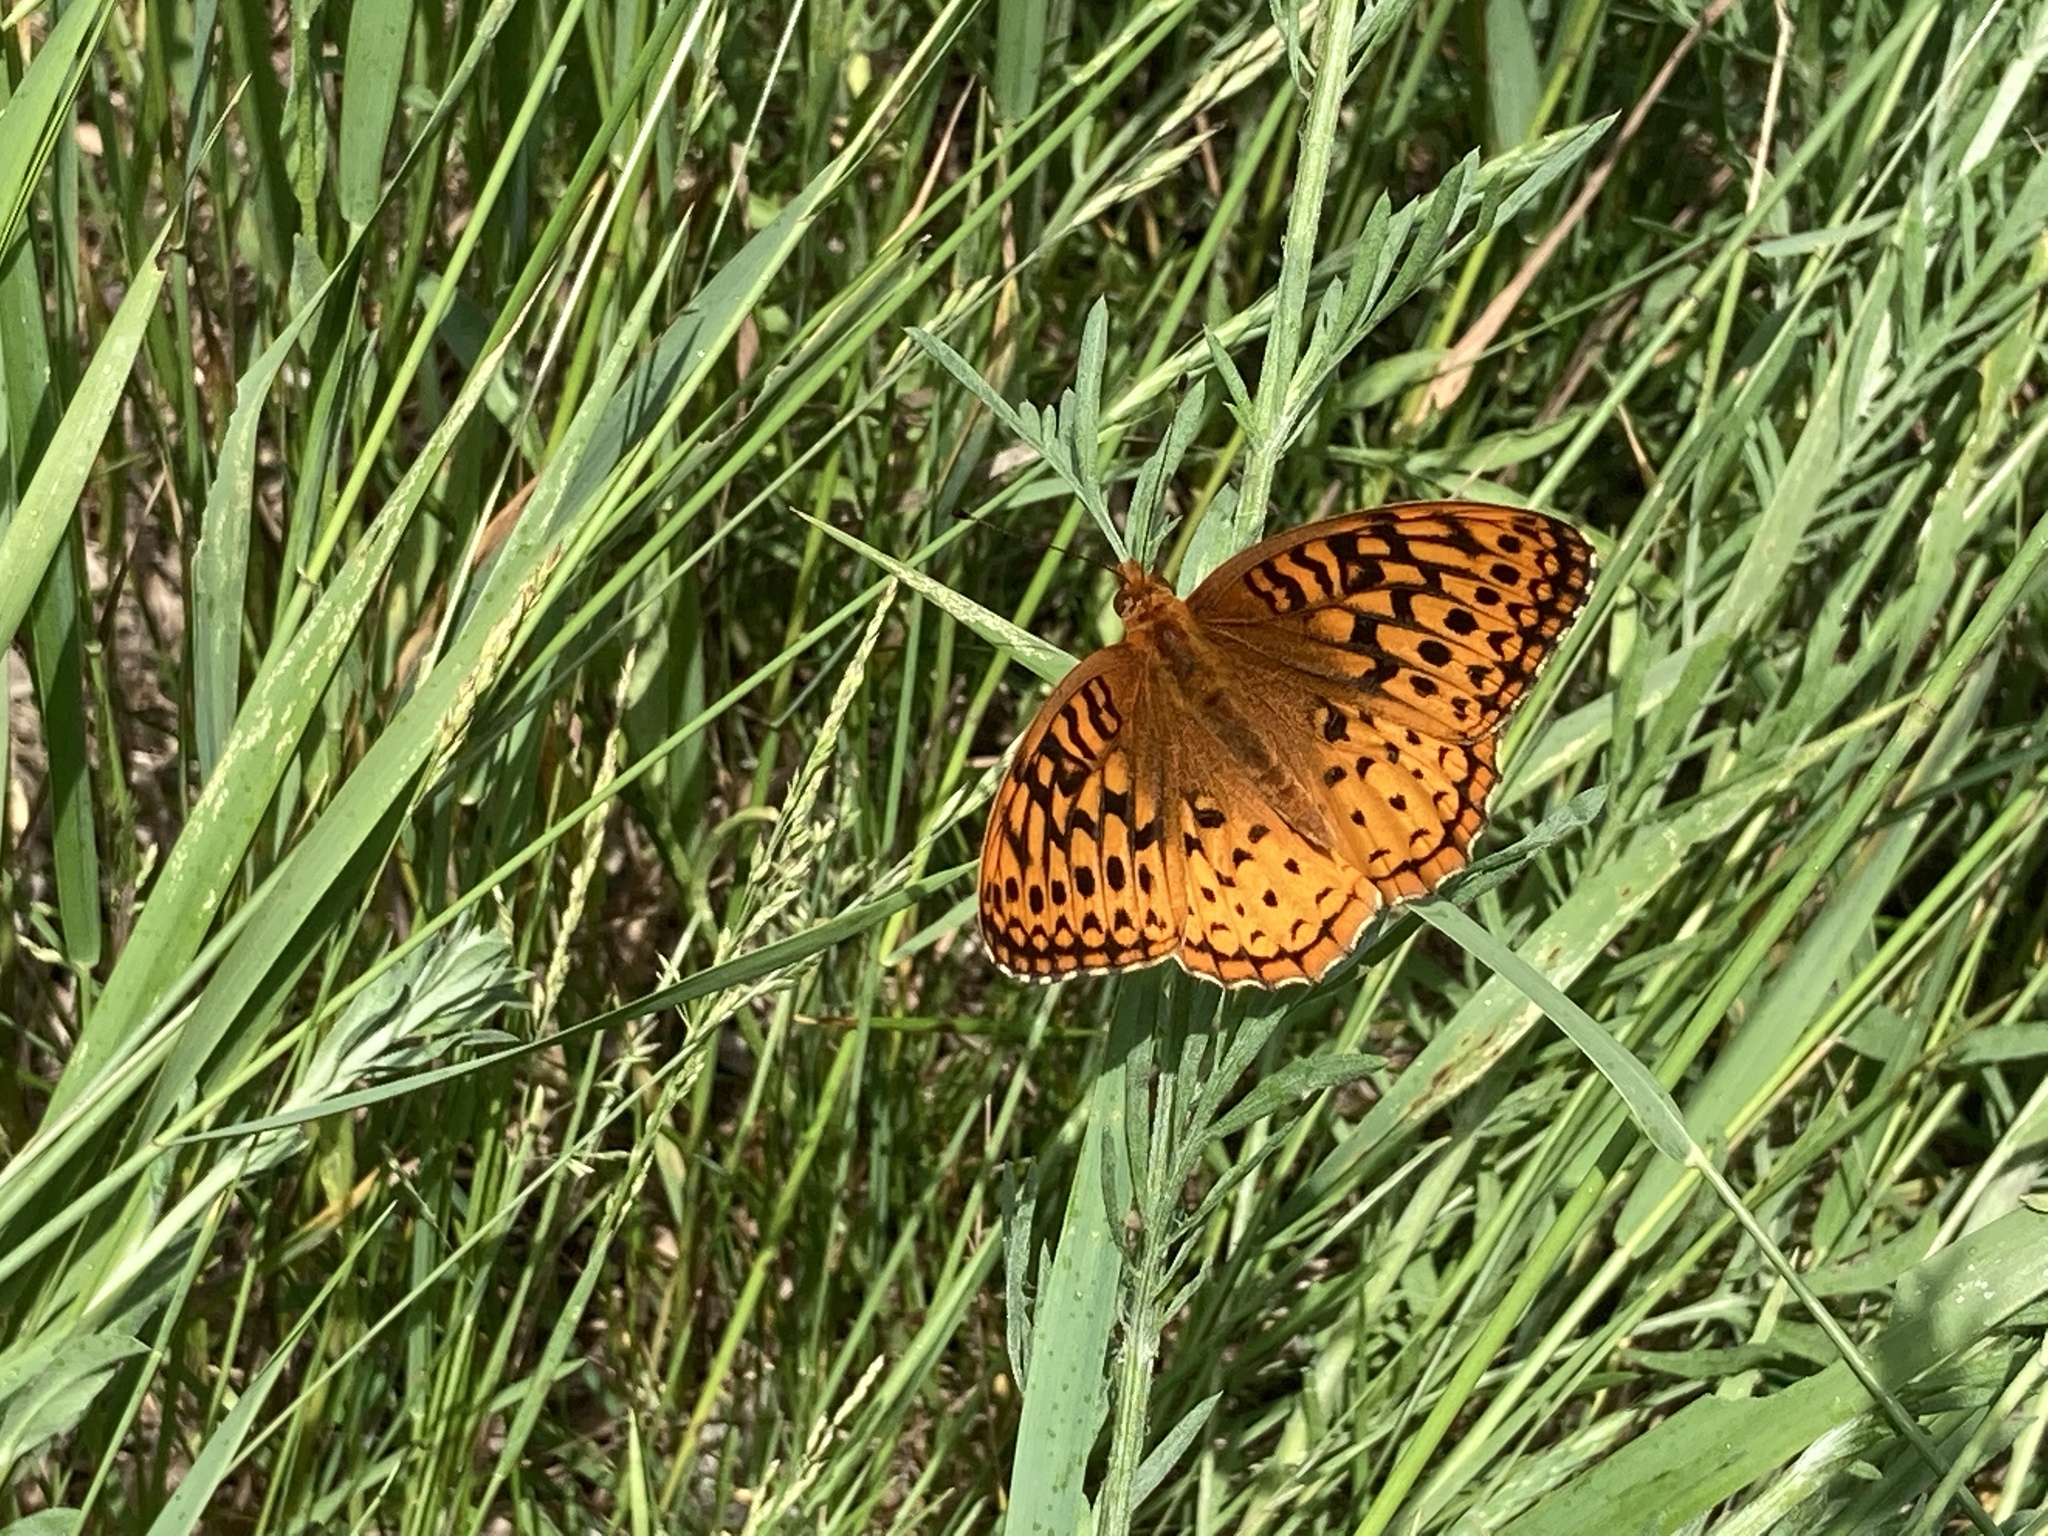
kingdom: Animalia
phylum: Arthropoda
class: Insecta
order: Lepidoptera
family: Nymphalidae
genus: Speyeria
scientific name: Speyeria cybele
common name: Great spangled fritillary
